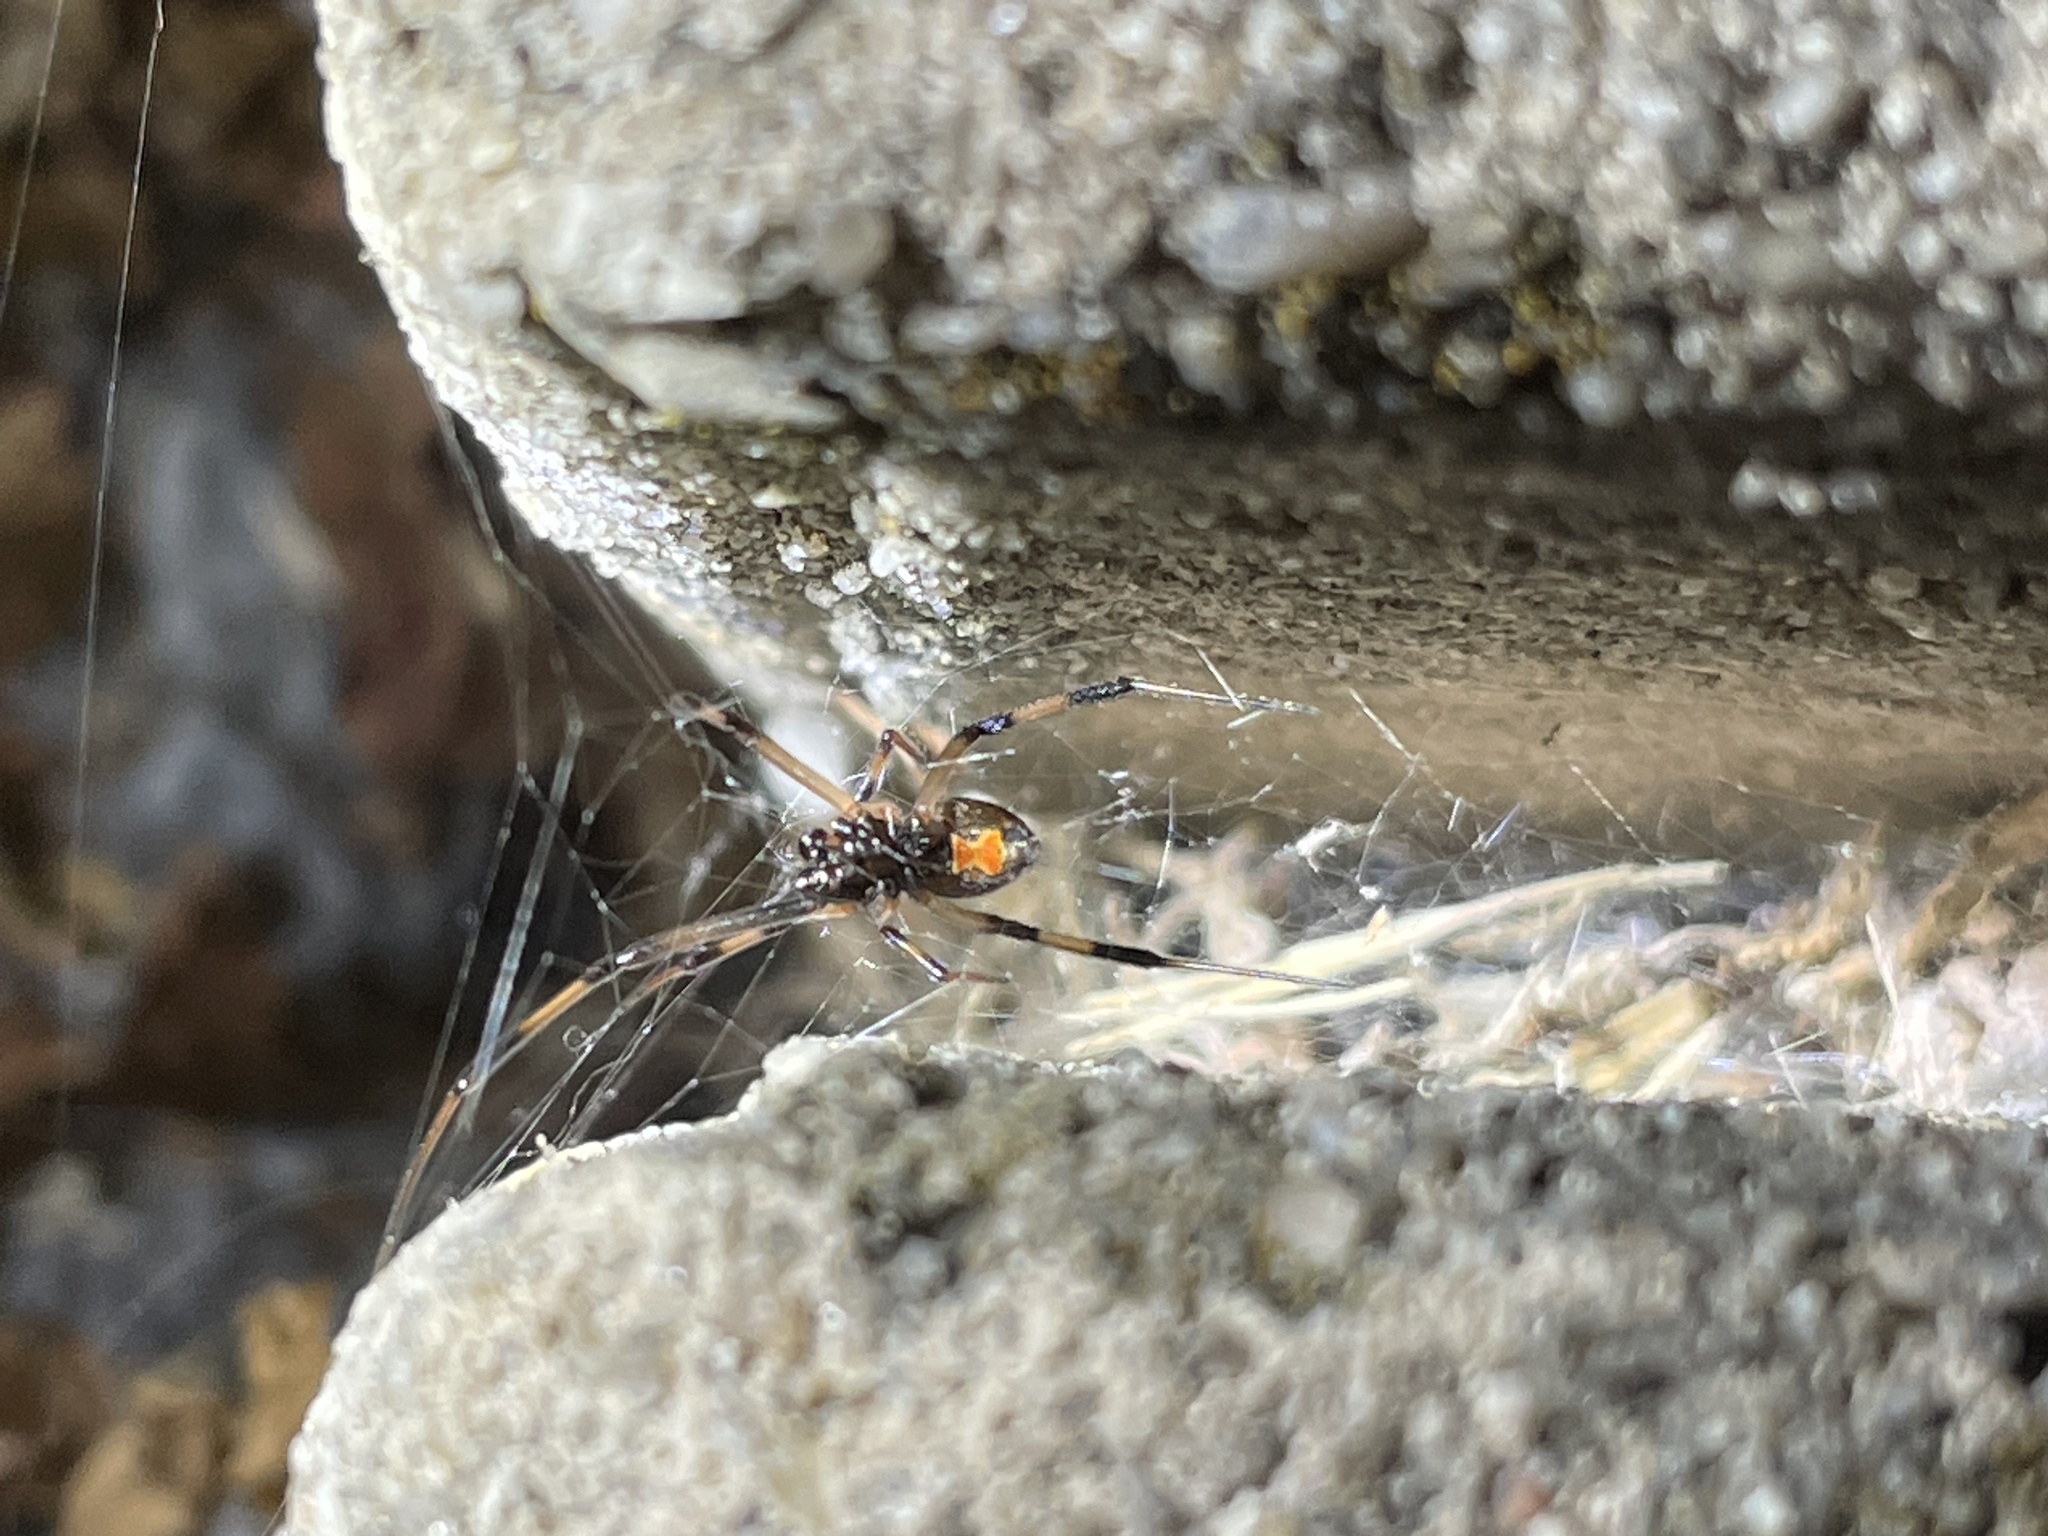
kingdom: Animalia
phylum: Arthropoda
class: Arachnida
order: Araneae
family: Theridiidae
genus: Latrodectus
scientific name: Latrodectus mactans
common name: Cobweb spiders
